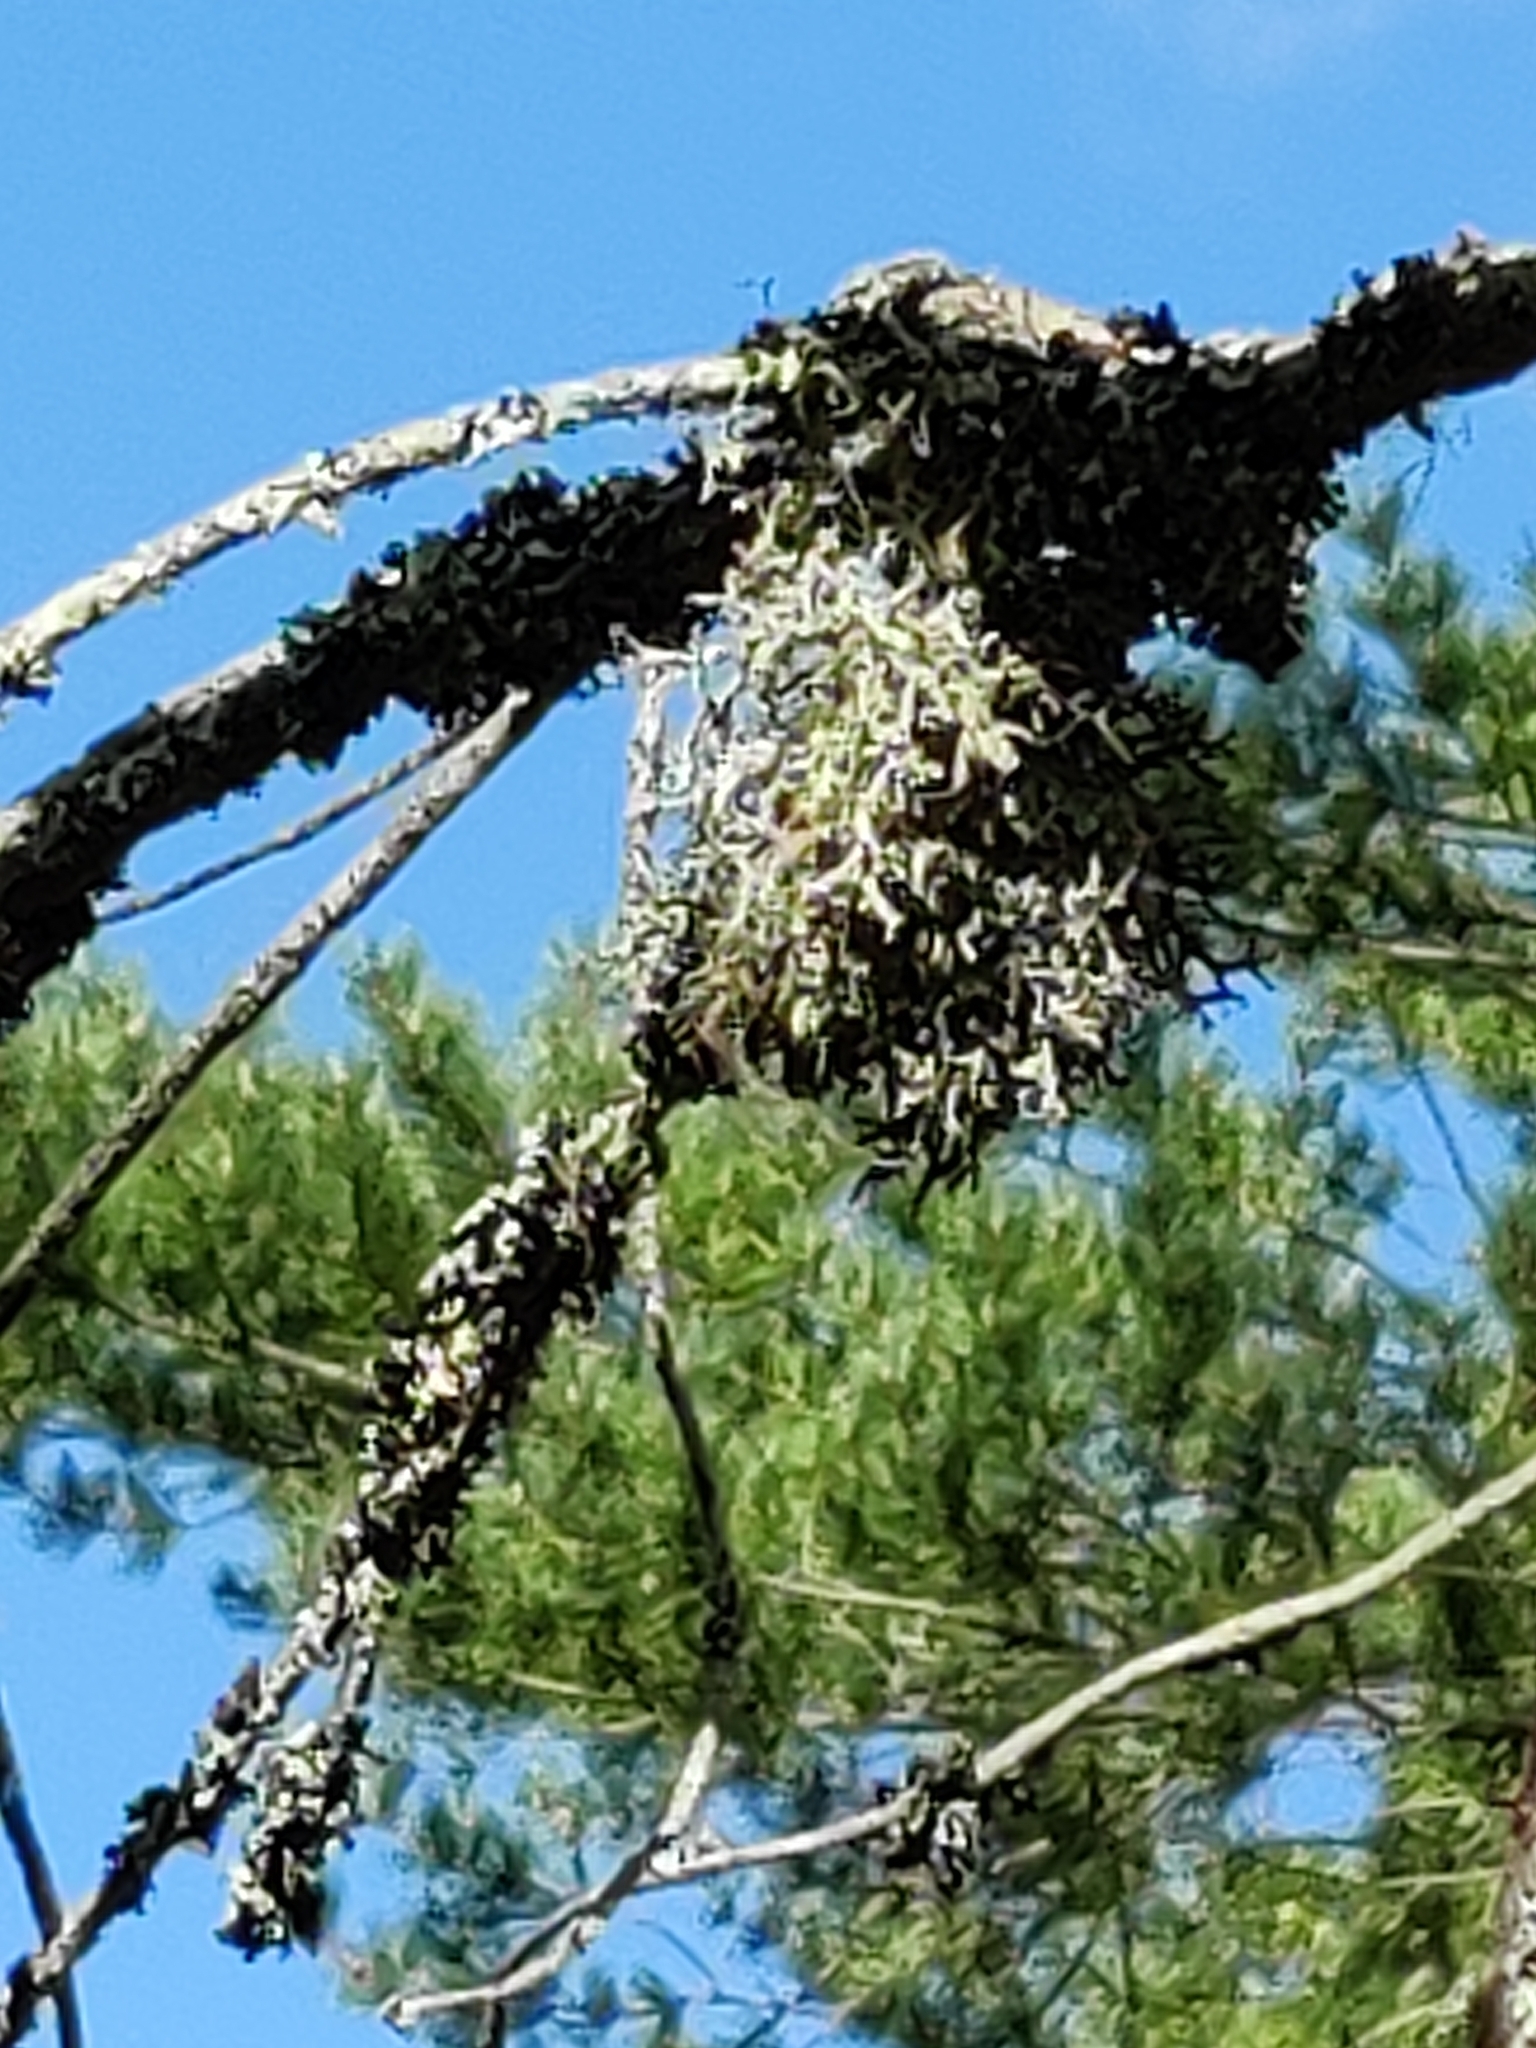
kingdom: Fungi
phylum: Ascomycota
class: Lecanoromycetes
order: Lecanorales
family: Parmeliaceae
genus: Pseudevernia
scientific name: Pseudevernia furfuracea
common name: Tree moss
